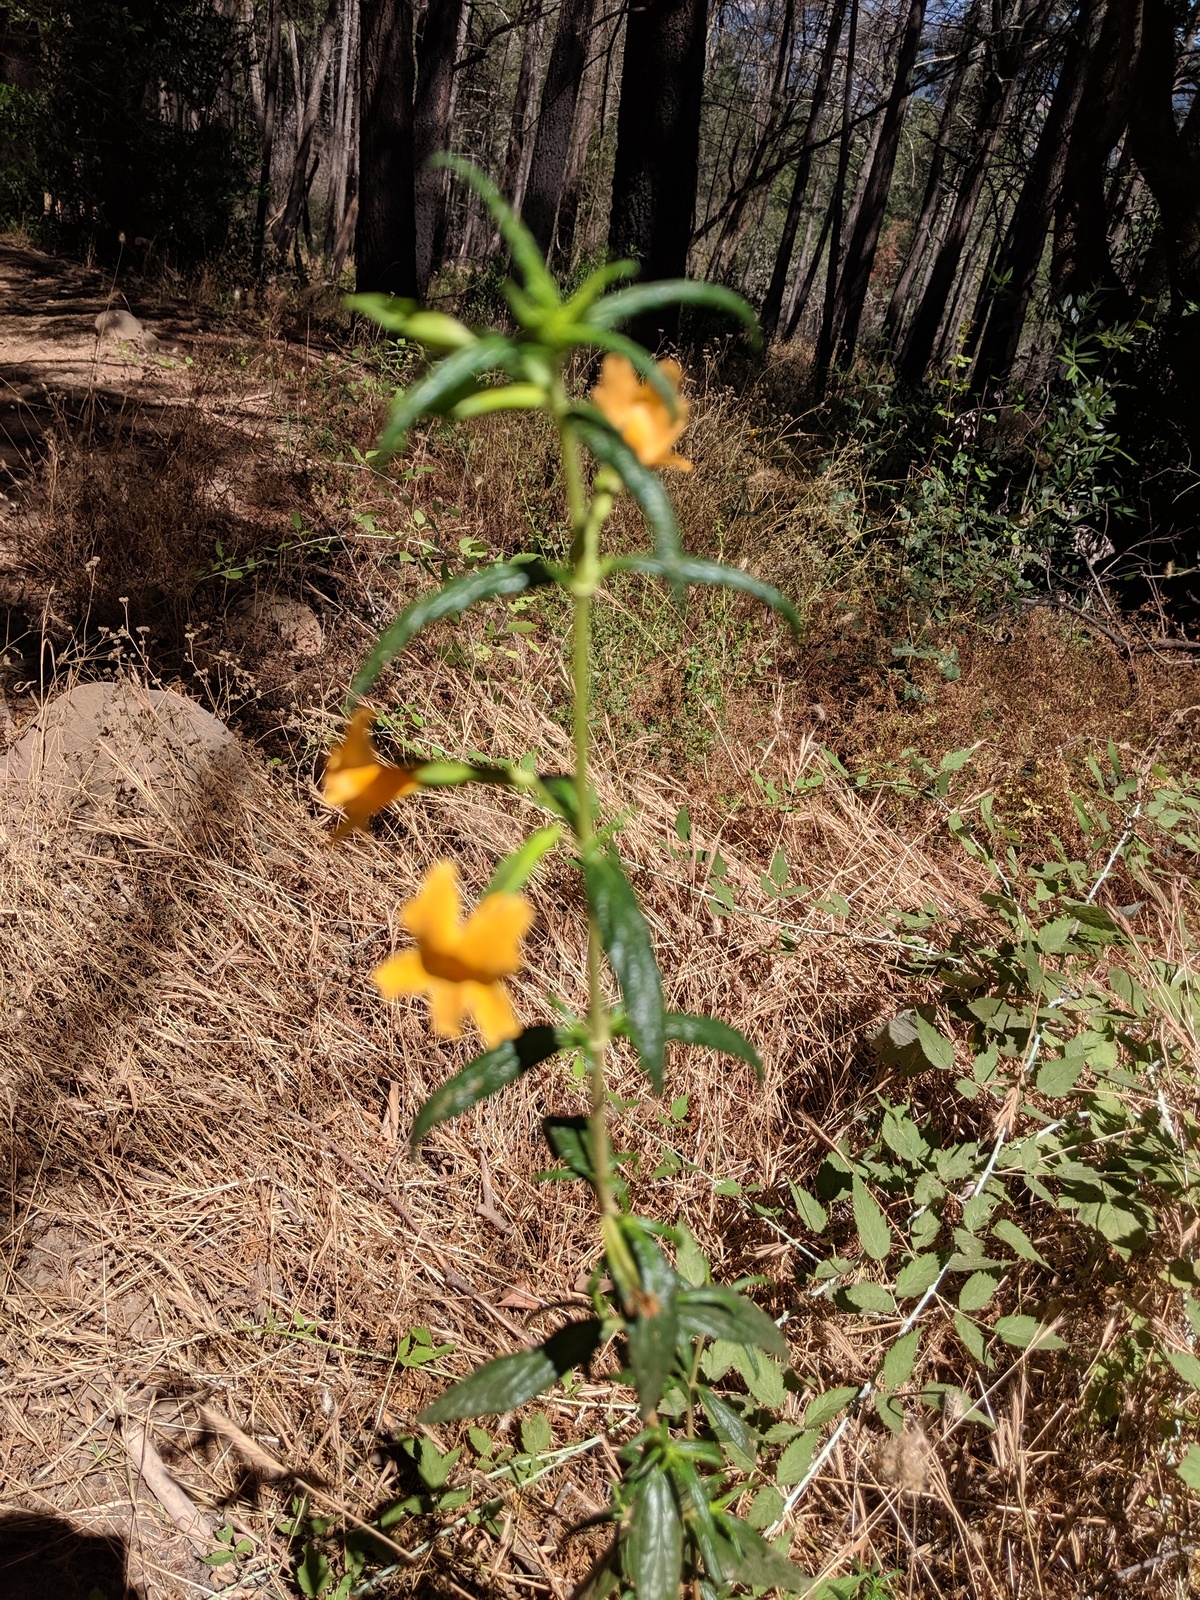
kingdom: Plantae
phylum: Tracheophyta
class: Magnoliopsida
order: Lamiales
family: Phrymaceae
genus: Diplacus
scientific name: Diplacus aurantiacus
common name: Bush monkey-flower
